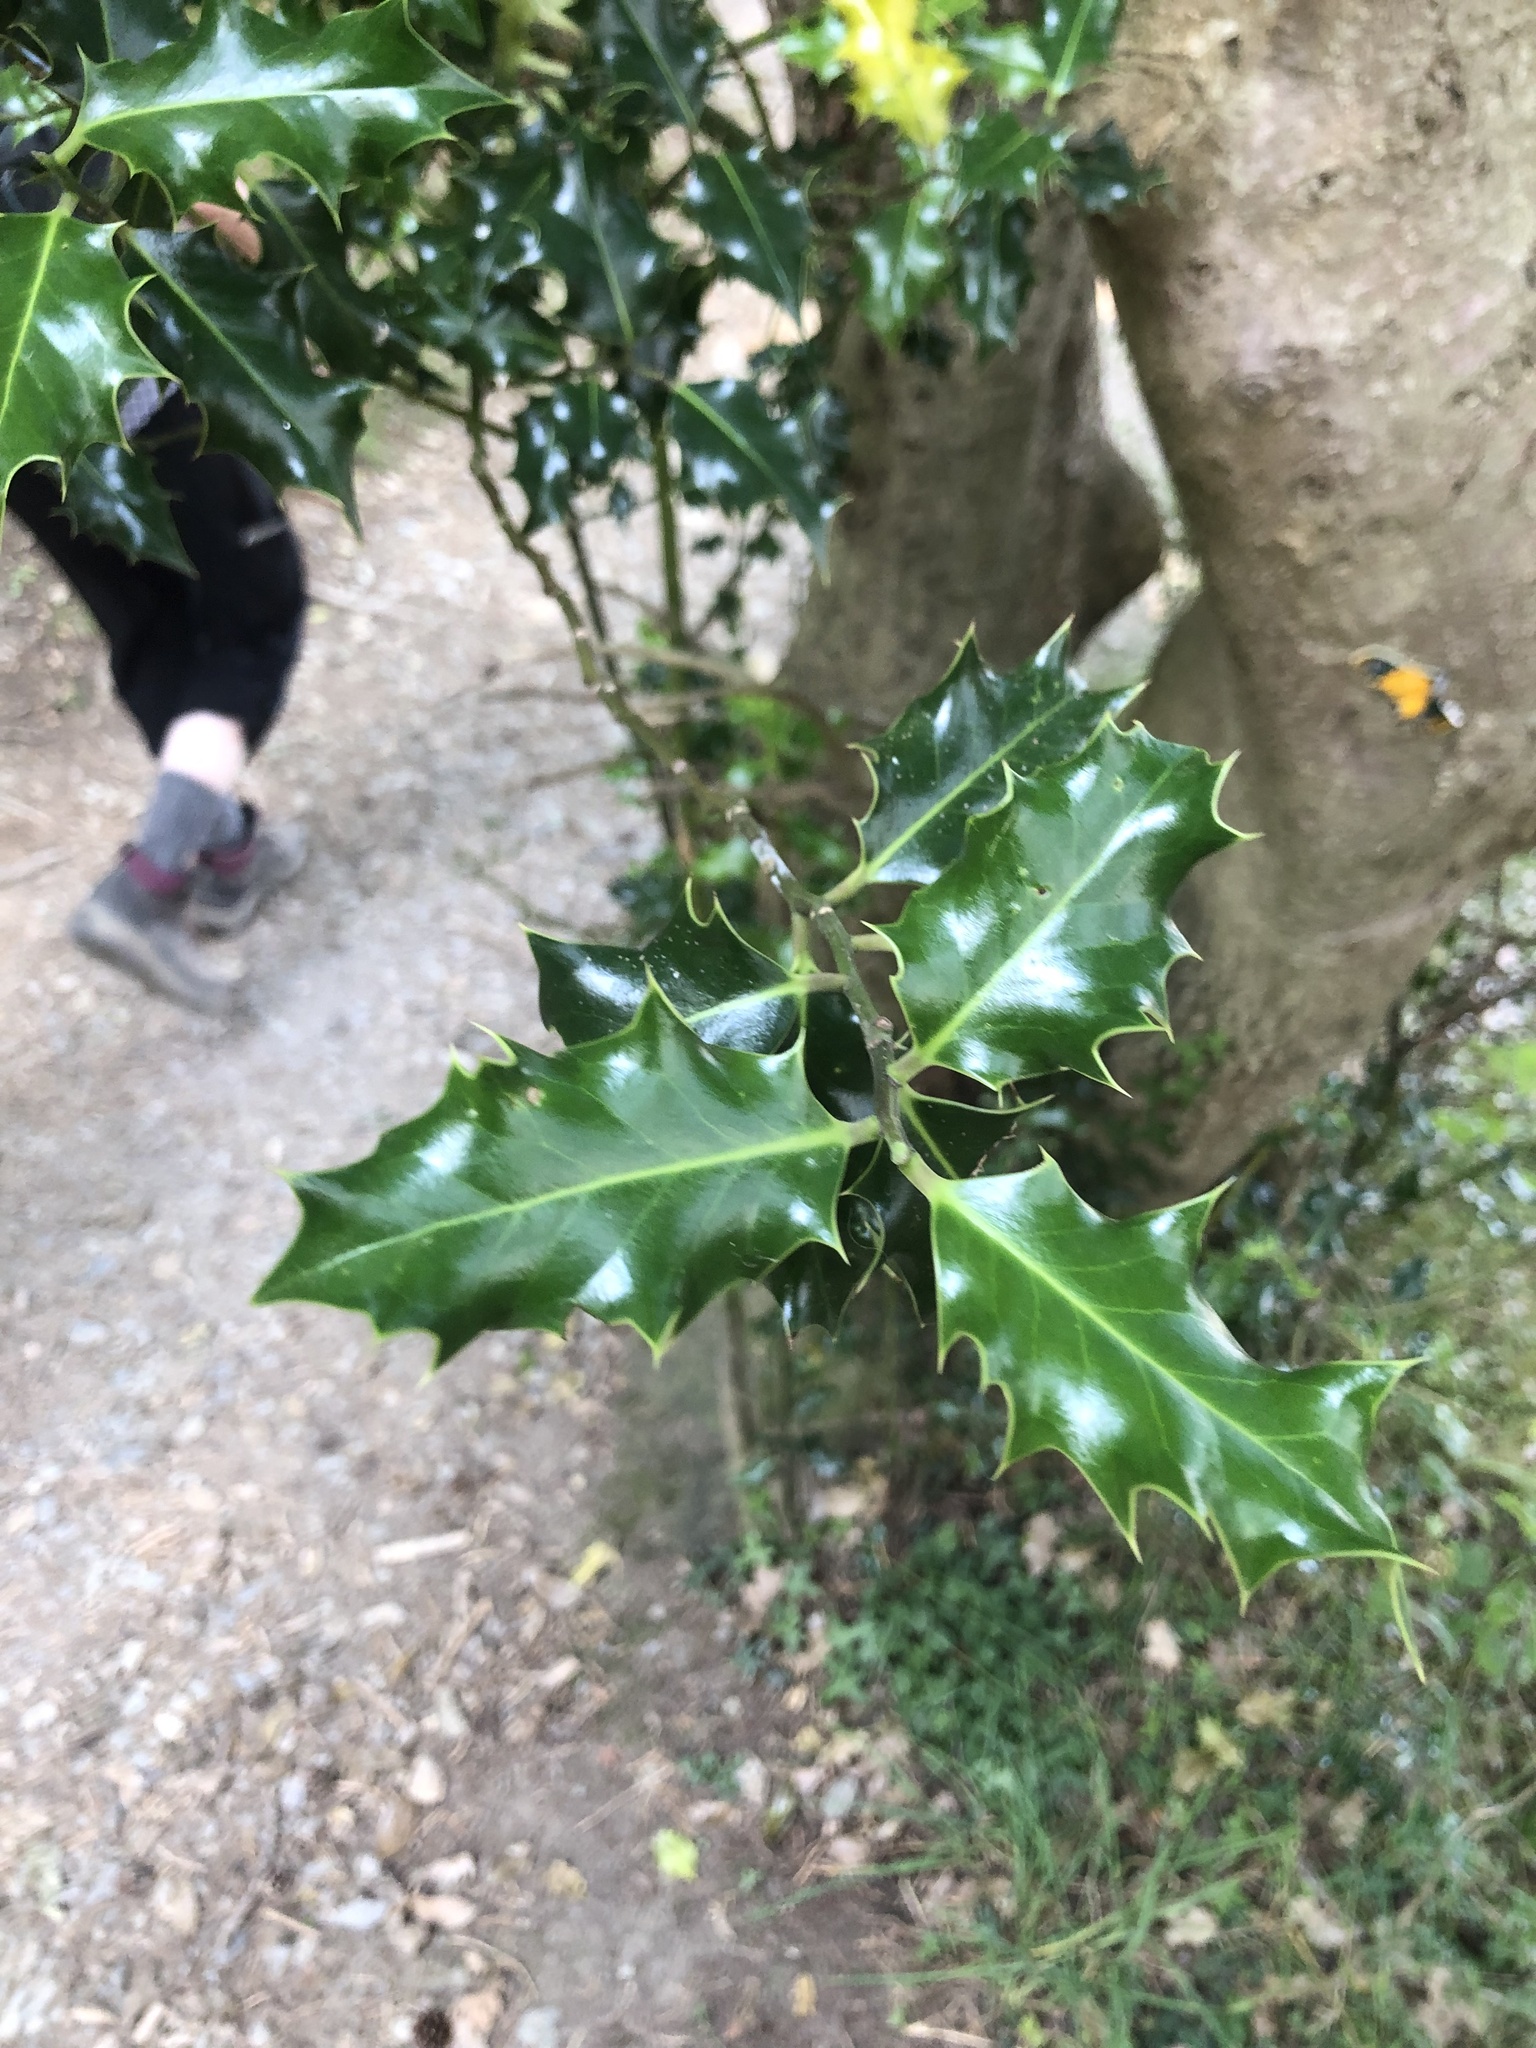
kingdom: Plantae
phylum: Tracheophyta
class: Magnoliopsida
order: Aquifoliales
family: Aquifoliaceae
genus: Ilex
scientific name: Ilex aquifolium
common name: English holly
